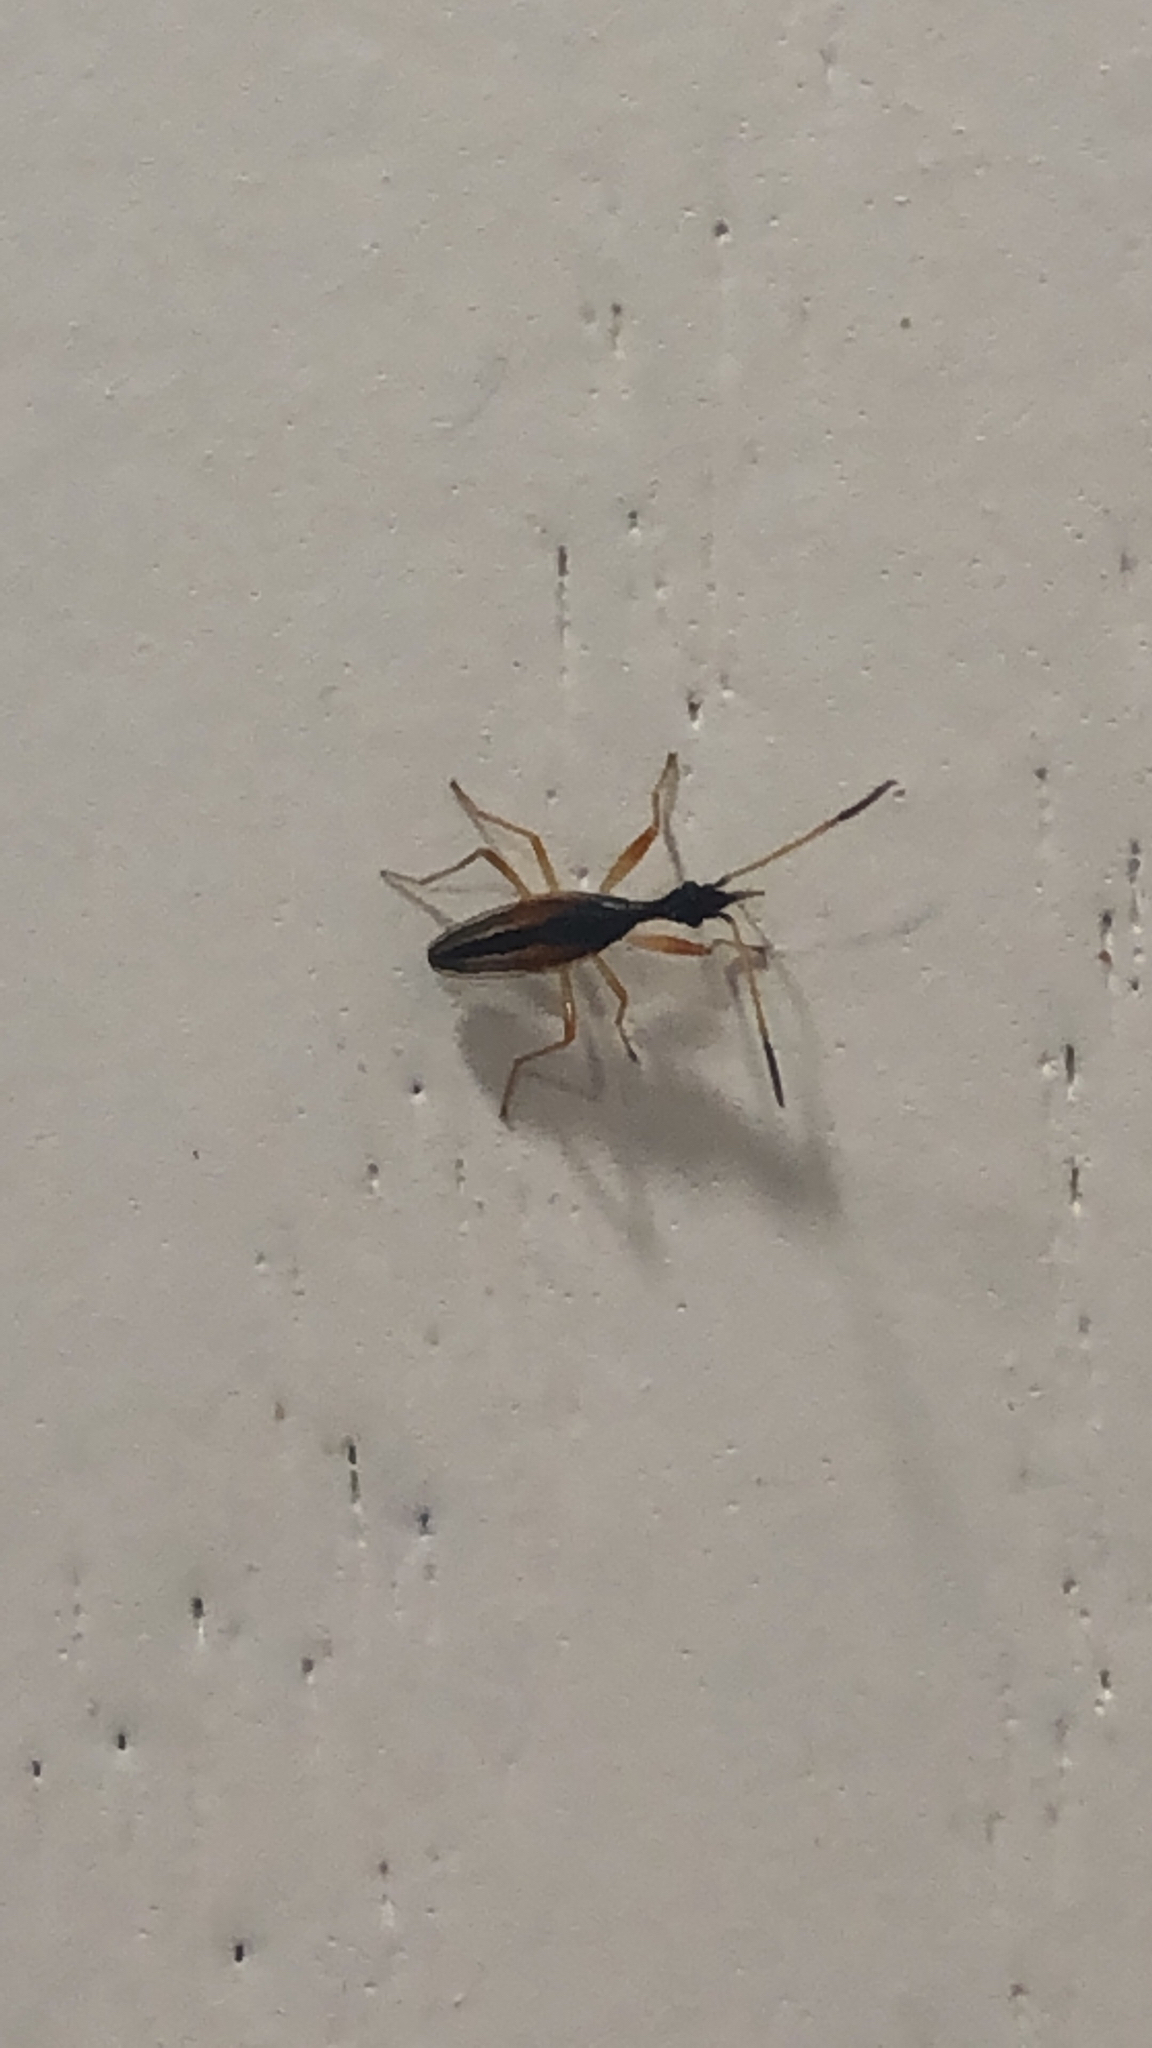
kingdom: Animalia
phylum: Arthropoda
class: Insecta
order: Hemiptera
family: Rhyparochromidae
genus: Myodocha
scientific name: Myodocha serripes
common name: Long-necked seed bug
